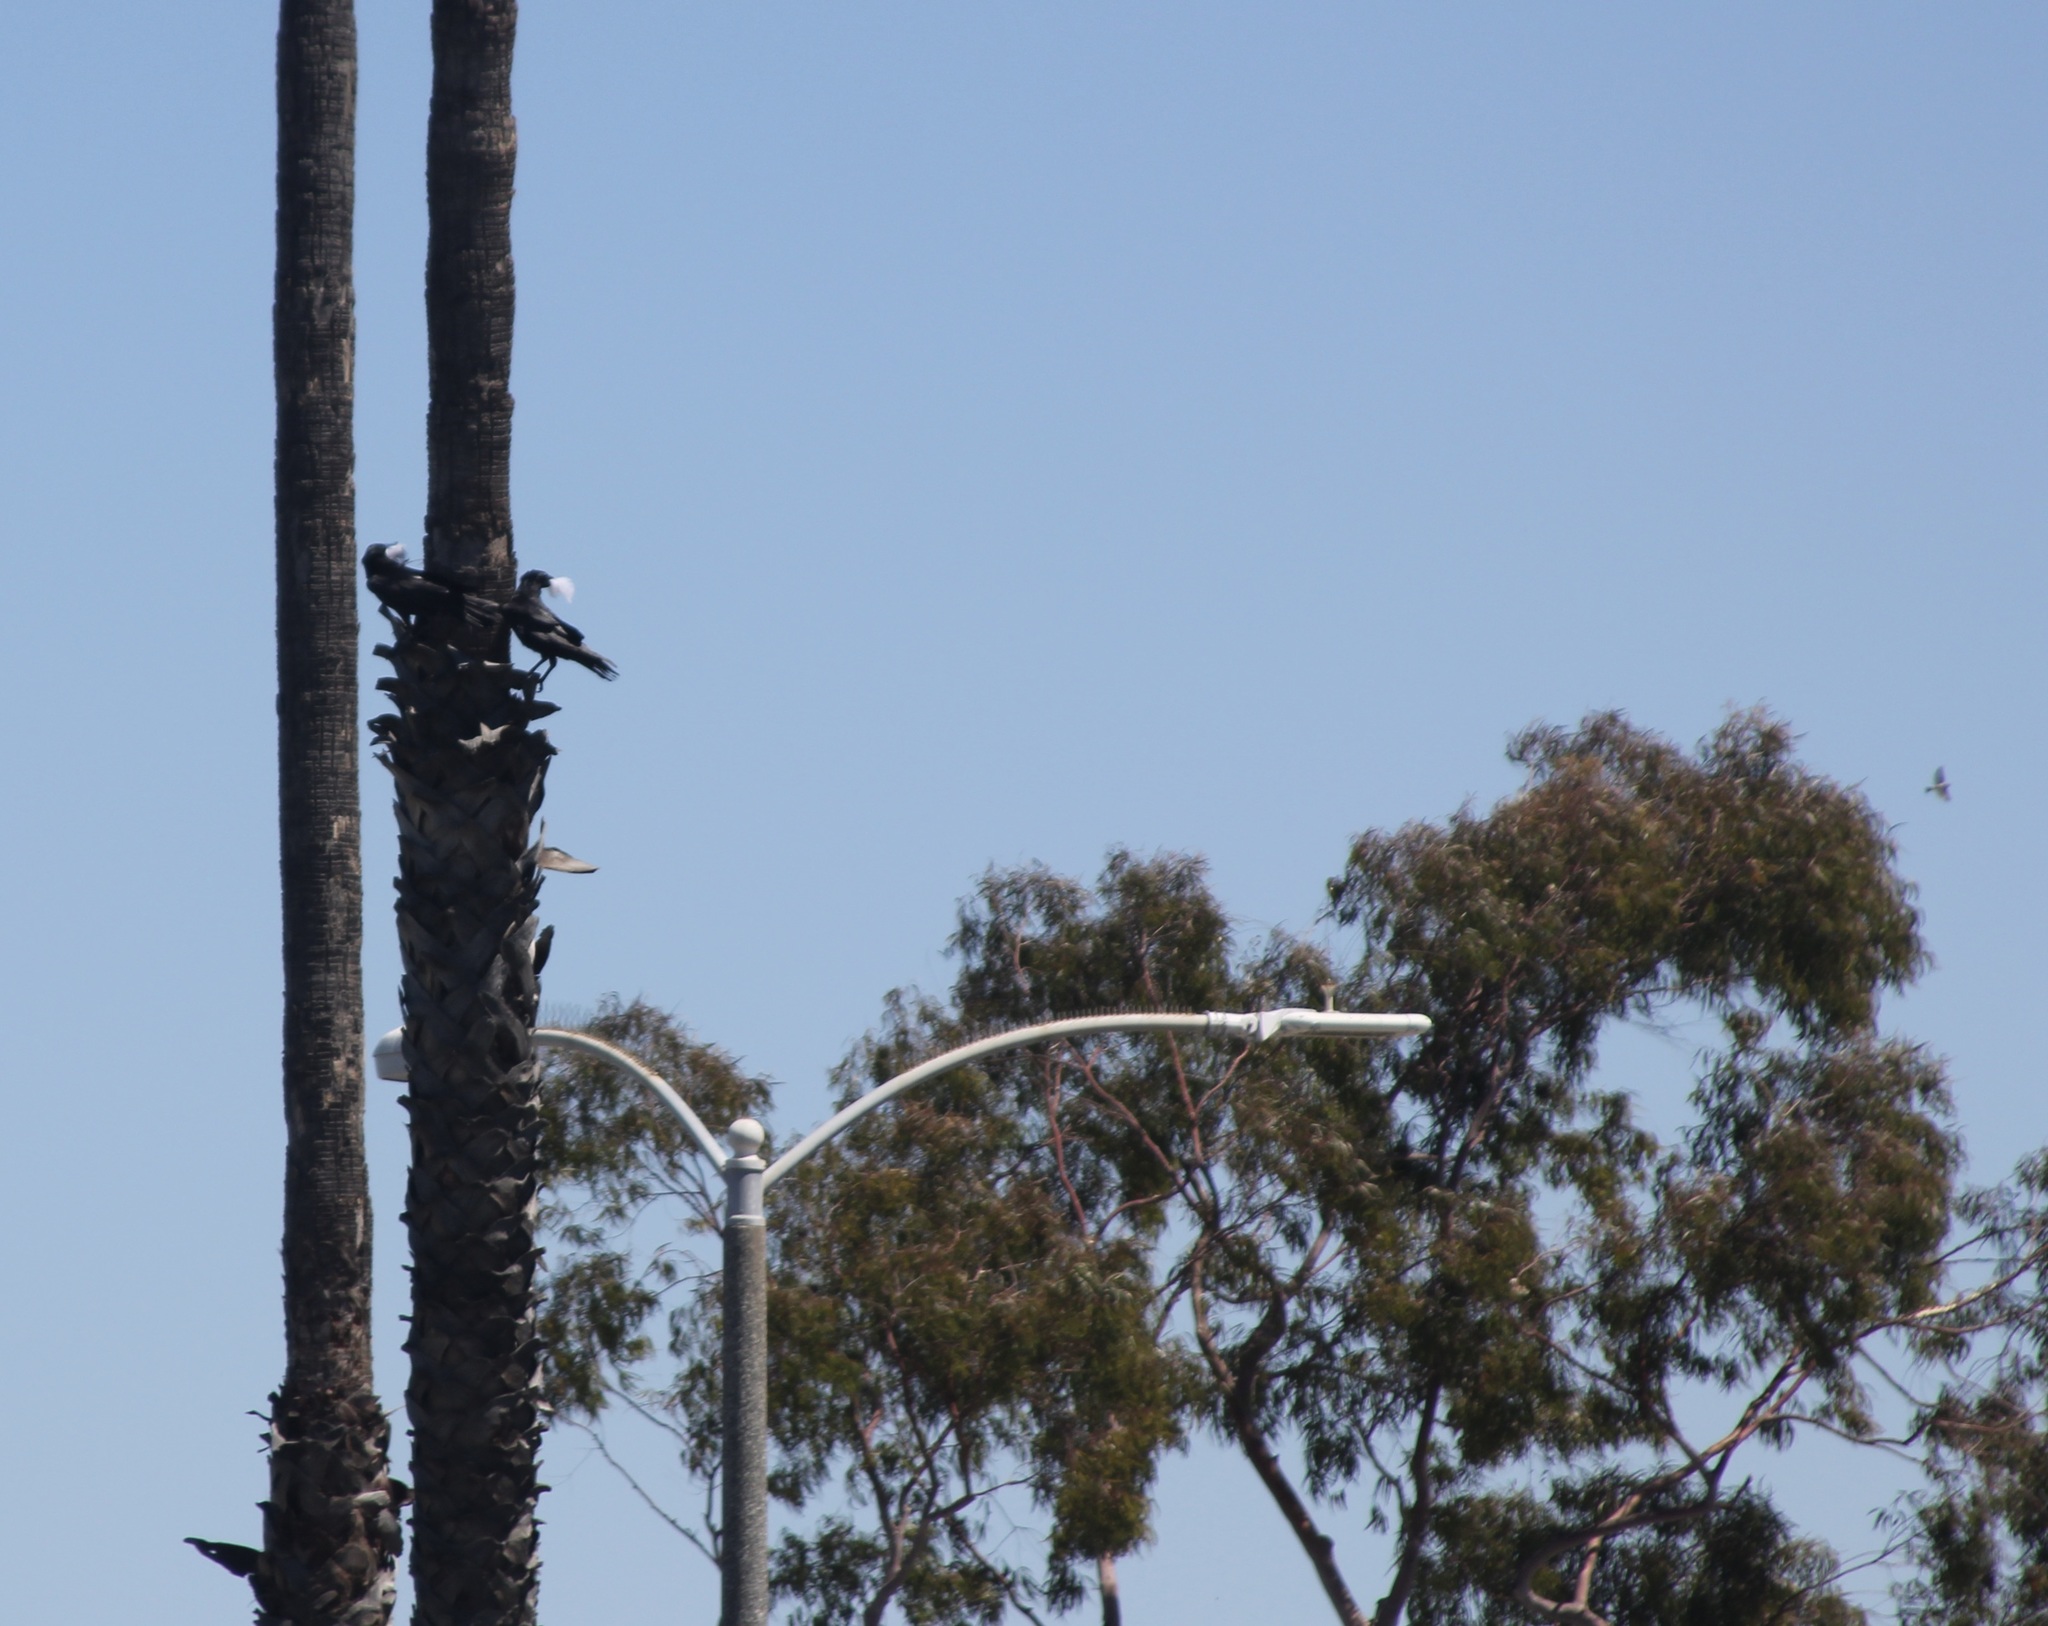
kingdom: Animalia
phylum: Chordata
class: Aves
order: Passeriformes
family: Corvidae
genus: Corvus
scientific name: Corvus brachyrhynchos
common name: American crow
